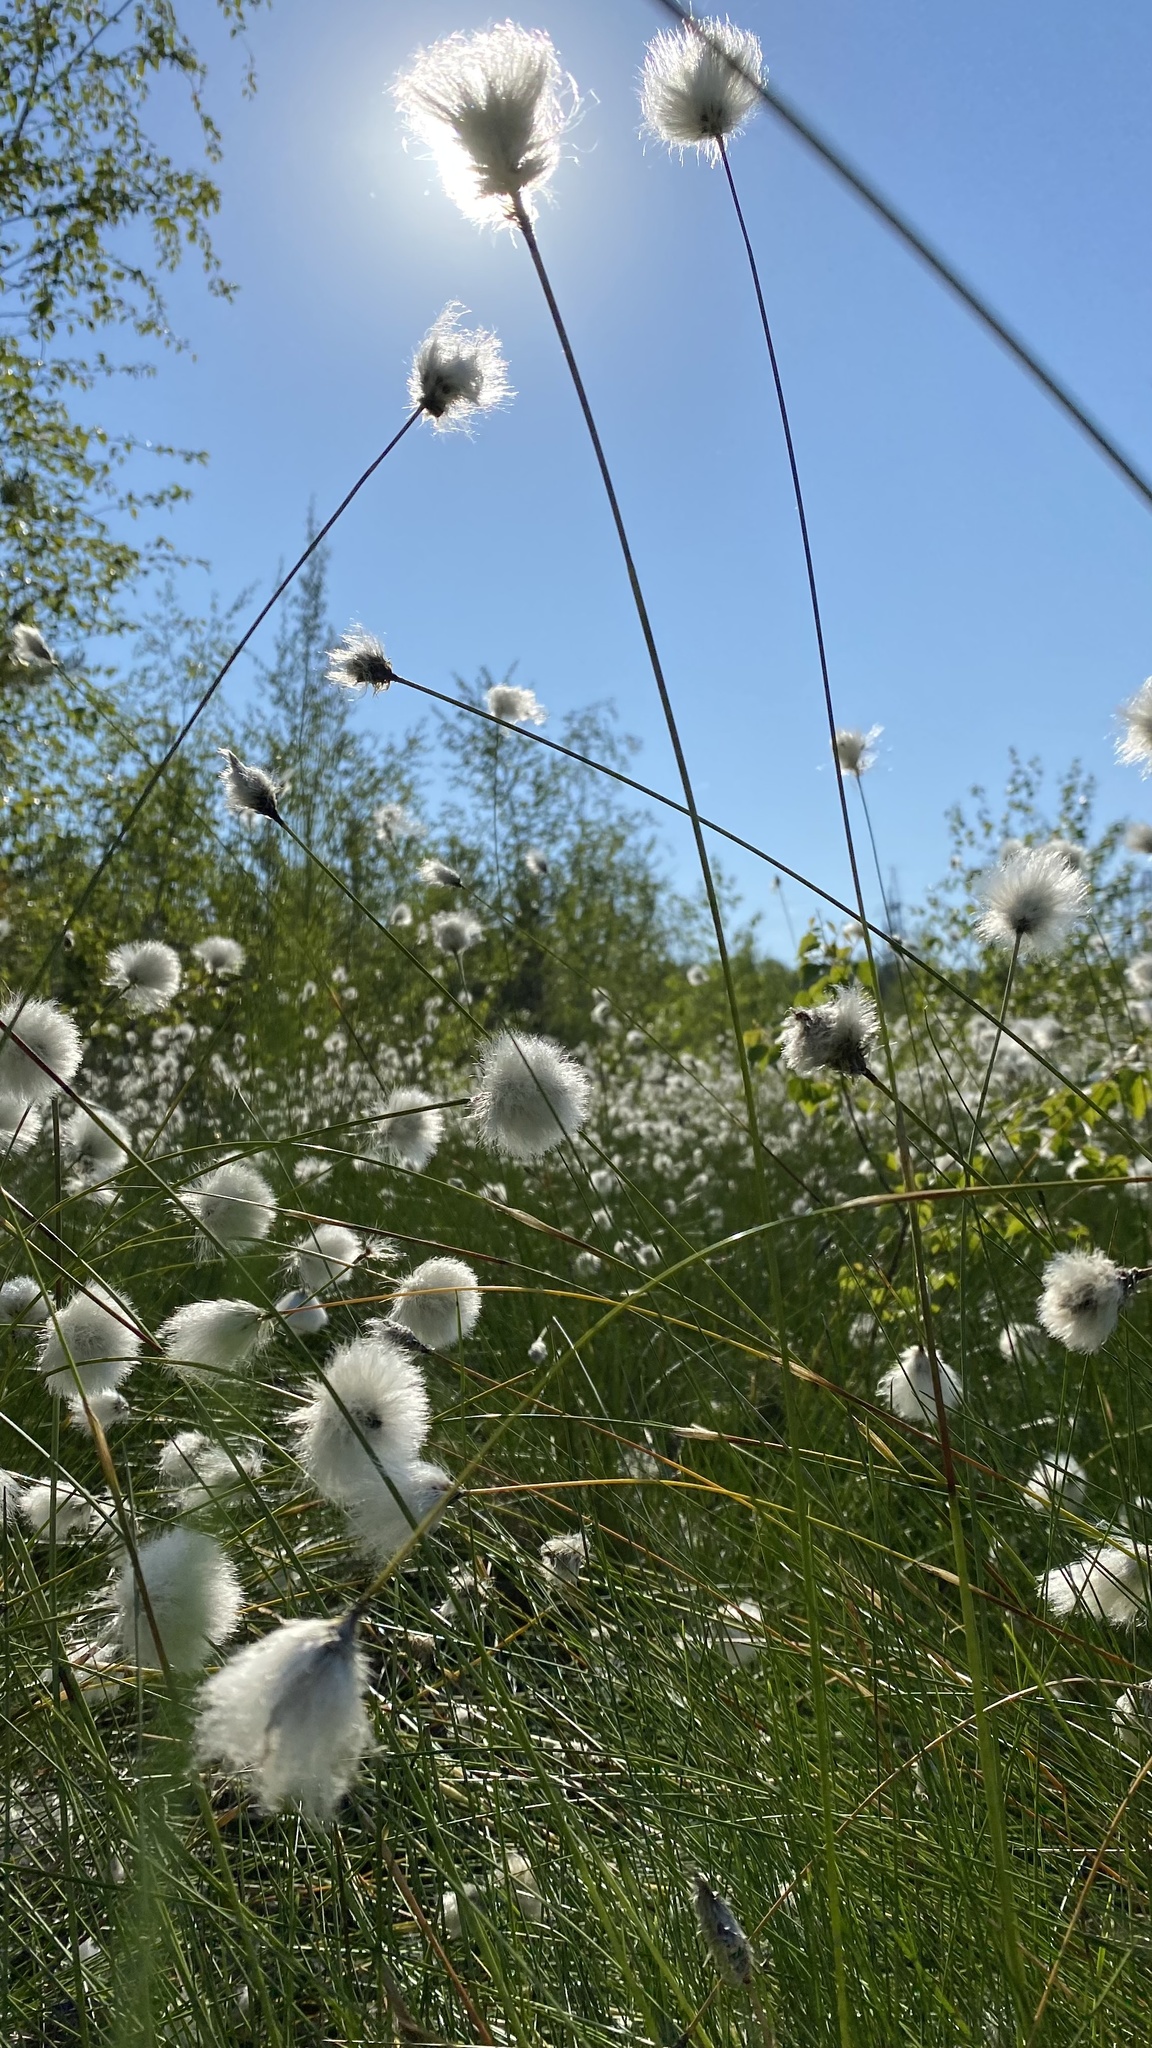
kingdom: Plantae
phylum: Tracheophyta
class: Liliopsida
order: Poales
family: Cyperaceae
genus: Eriophorum
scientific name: Eriophorum vaginatum
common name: Hare's-tail cottongrass
